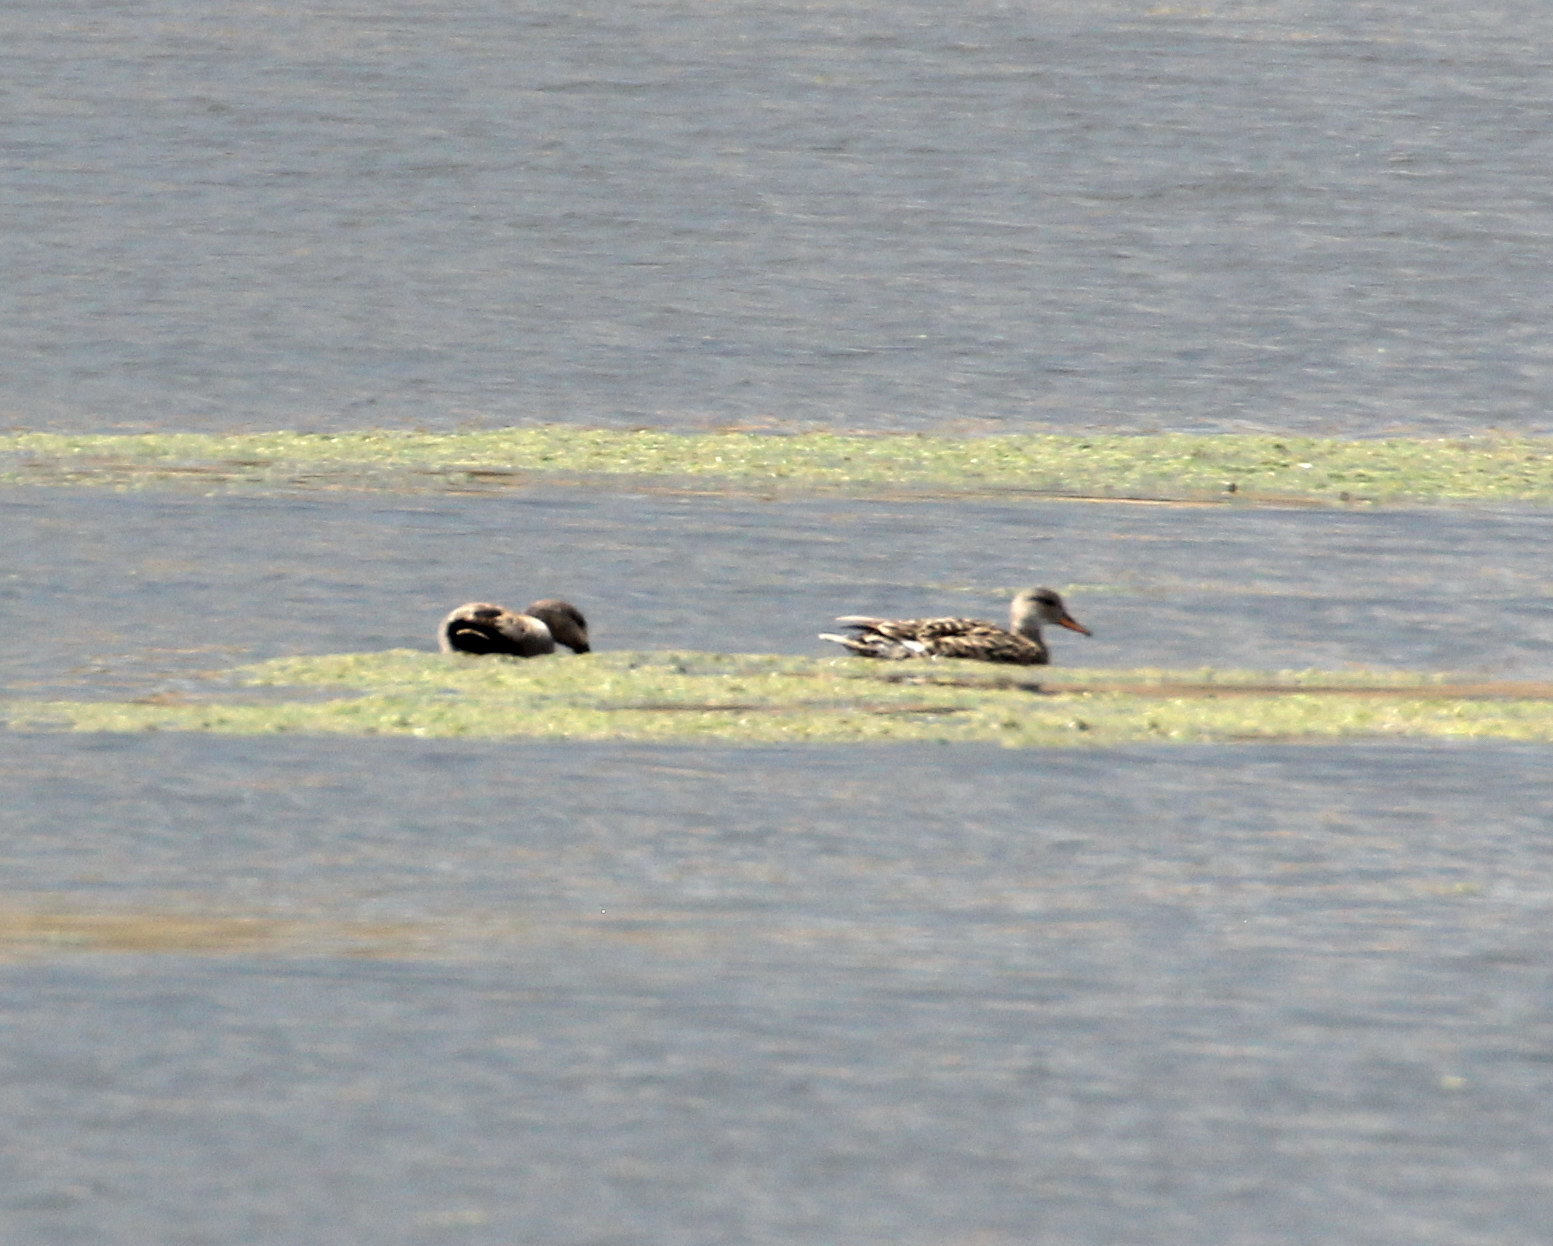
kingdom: Animalia
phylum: Chordata
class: Aves
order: Anseriformes
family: Anatidae
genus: Mareca
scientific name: Mareca strepera
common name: Gadwall
